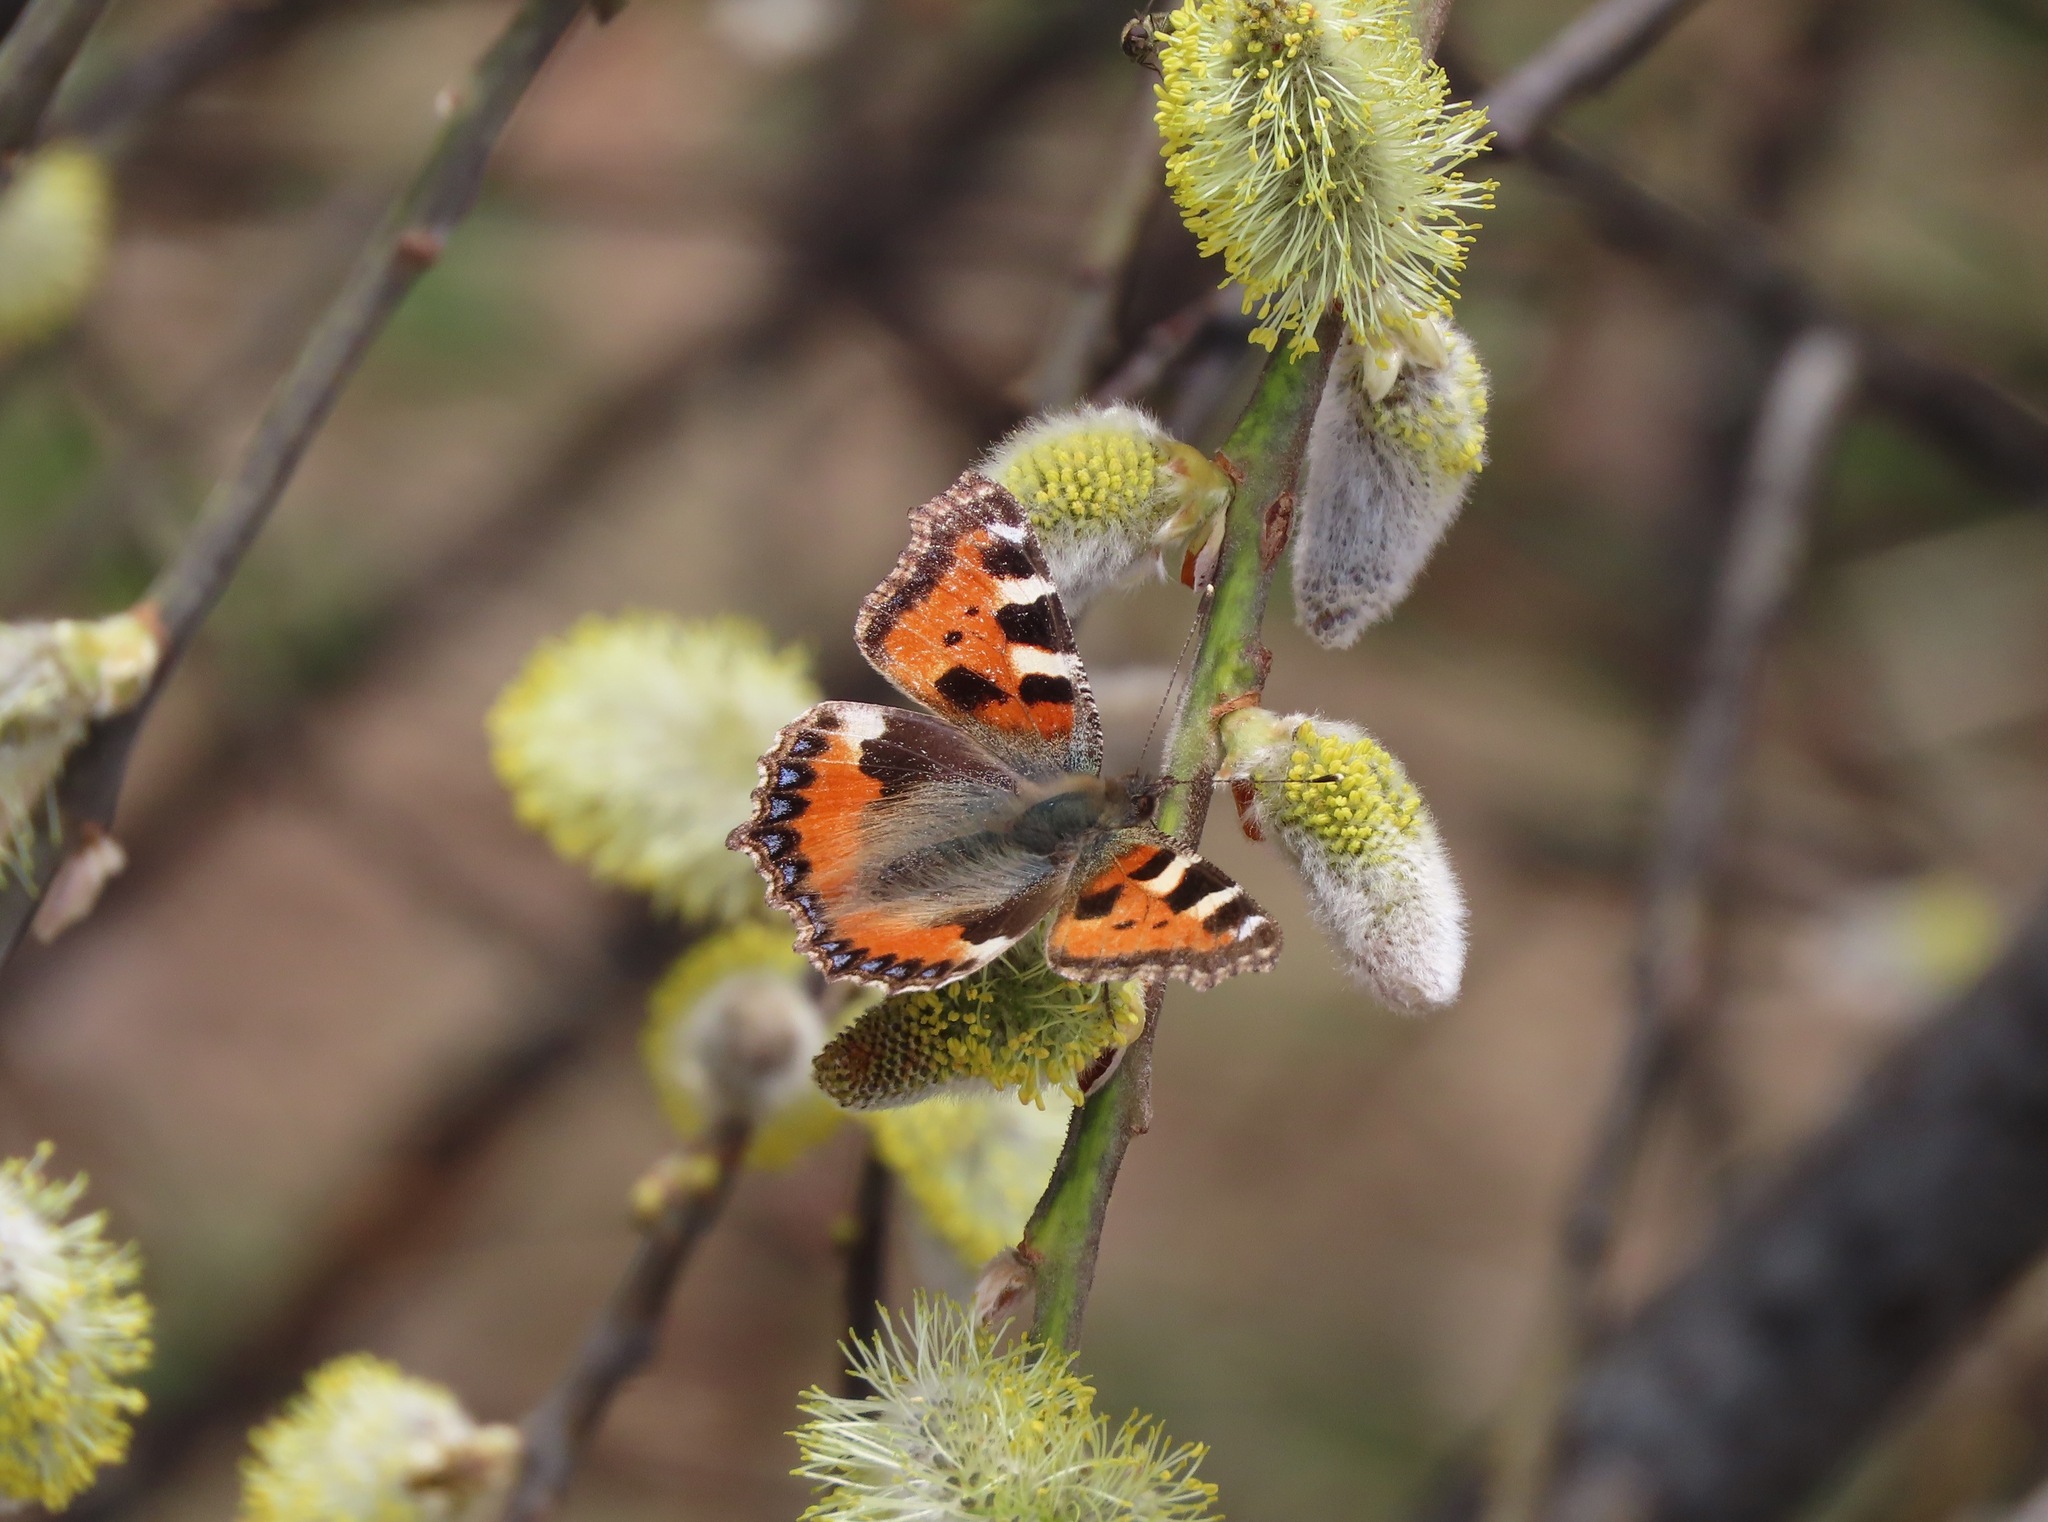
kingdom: Animalia
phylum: Arthropoda
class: Insecta
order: Lepidoptera
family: Nymphalidae
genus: Aglais
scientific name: Aglais urticae
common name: Small tortoiseshell
